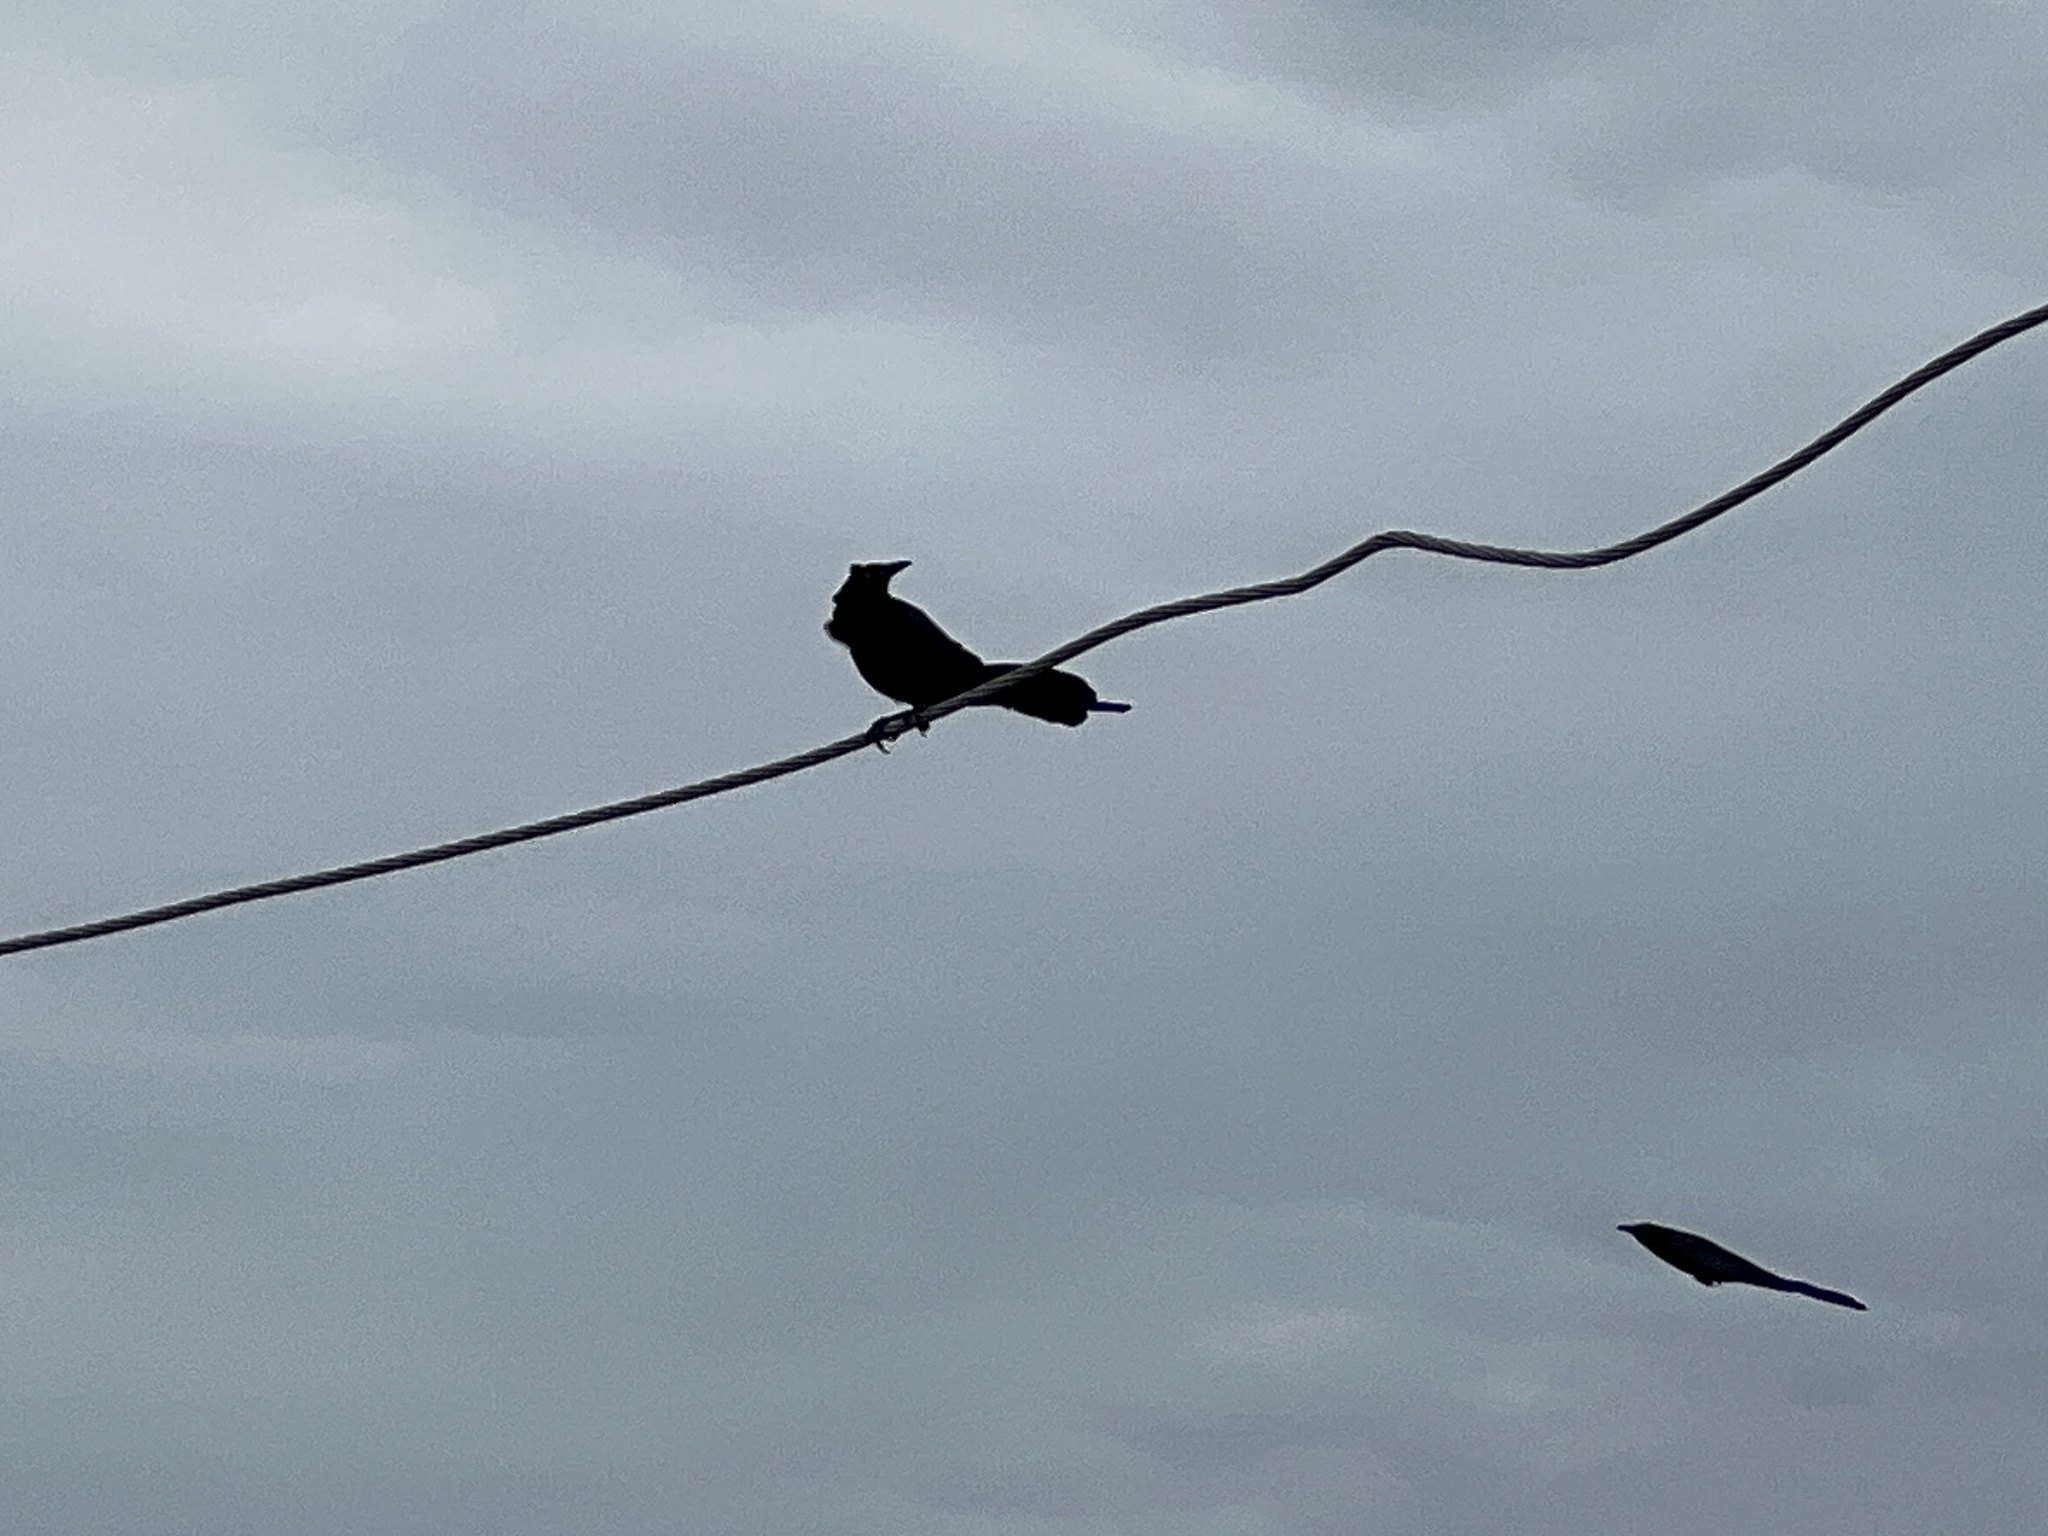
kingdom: Animalia
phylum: Chordata
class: Aves
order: Passeriformes
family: Icteridae
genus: Quiscalus
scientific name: Quiscalus mexicanus
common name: Great-tailed grackle
